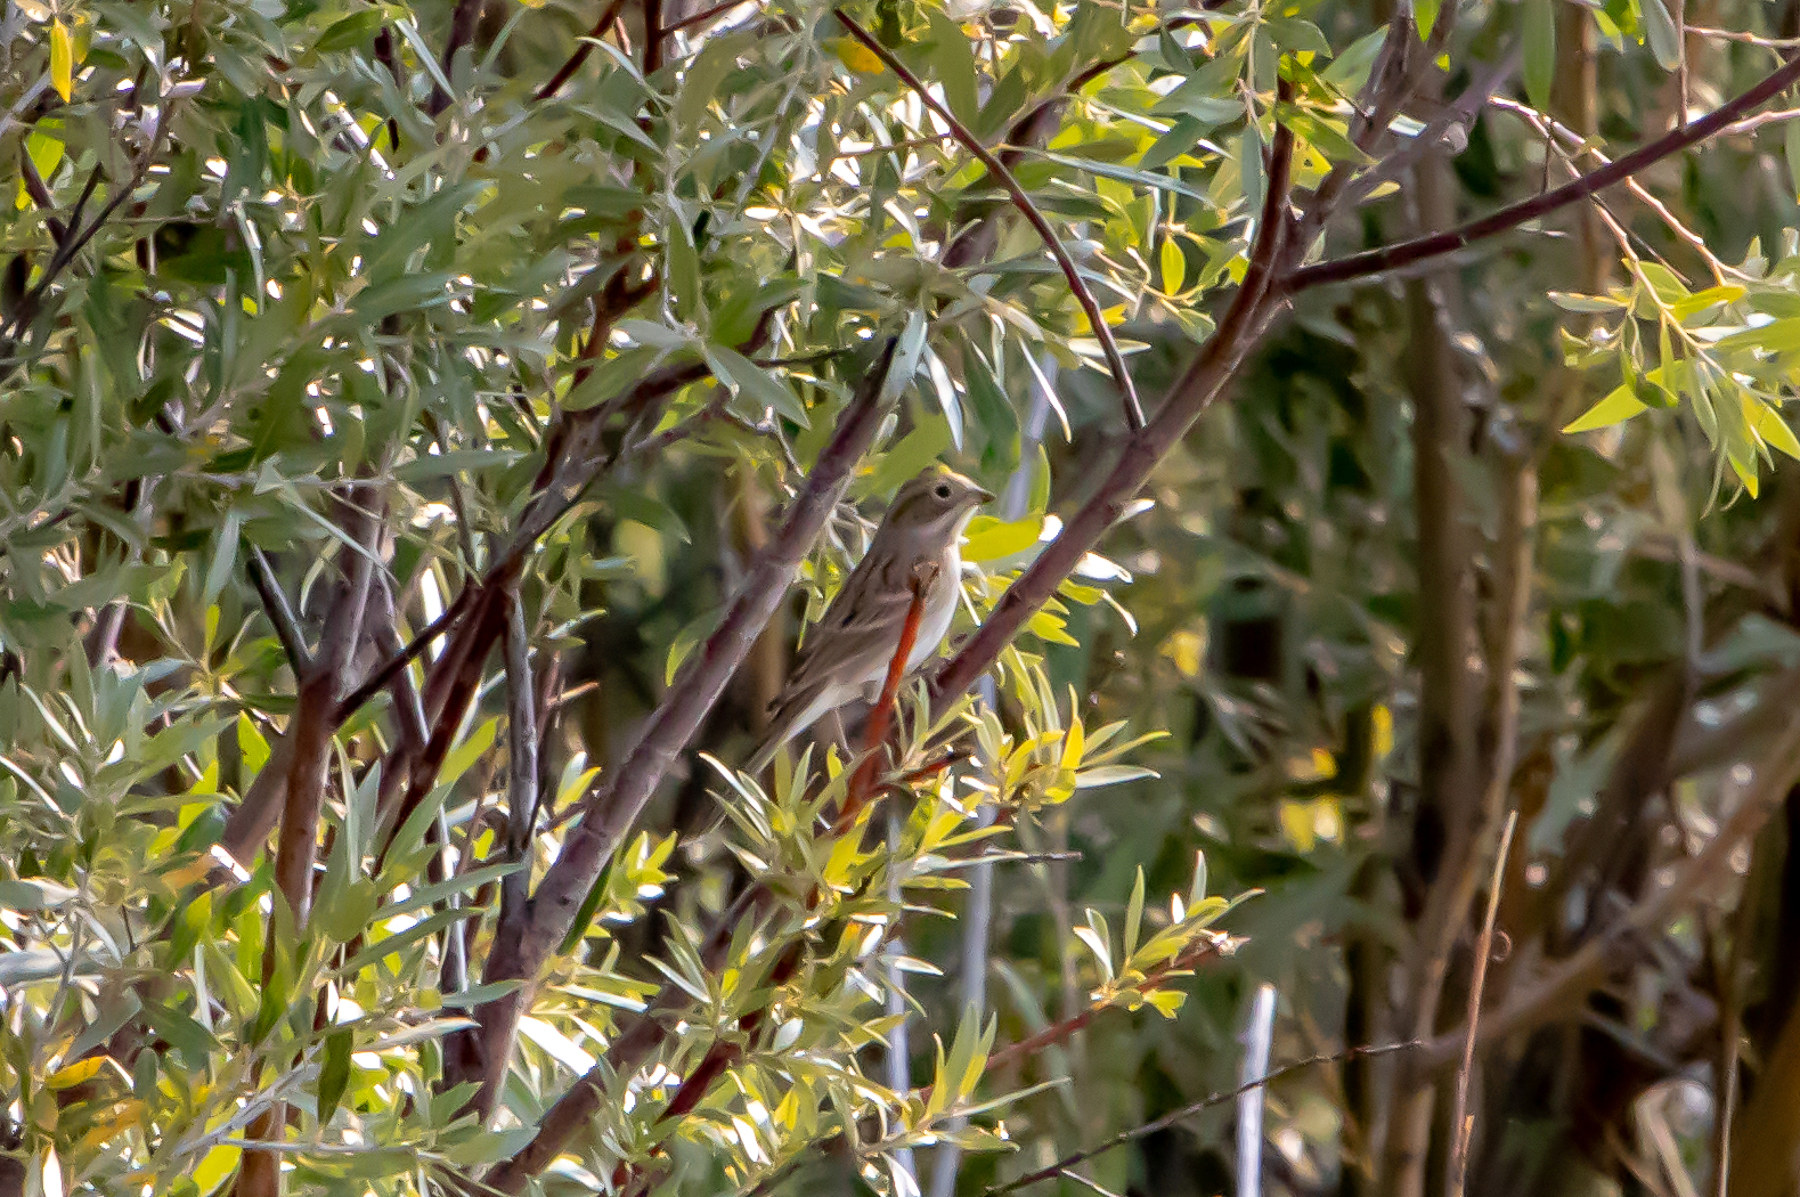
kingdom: Animalia
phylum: Chordata
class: Aves
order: Passeriformes
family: Passerellidae
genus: Spizella
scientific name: Spizella breweri
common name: Brewer's sparrow
